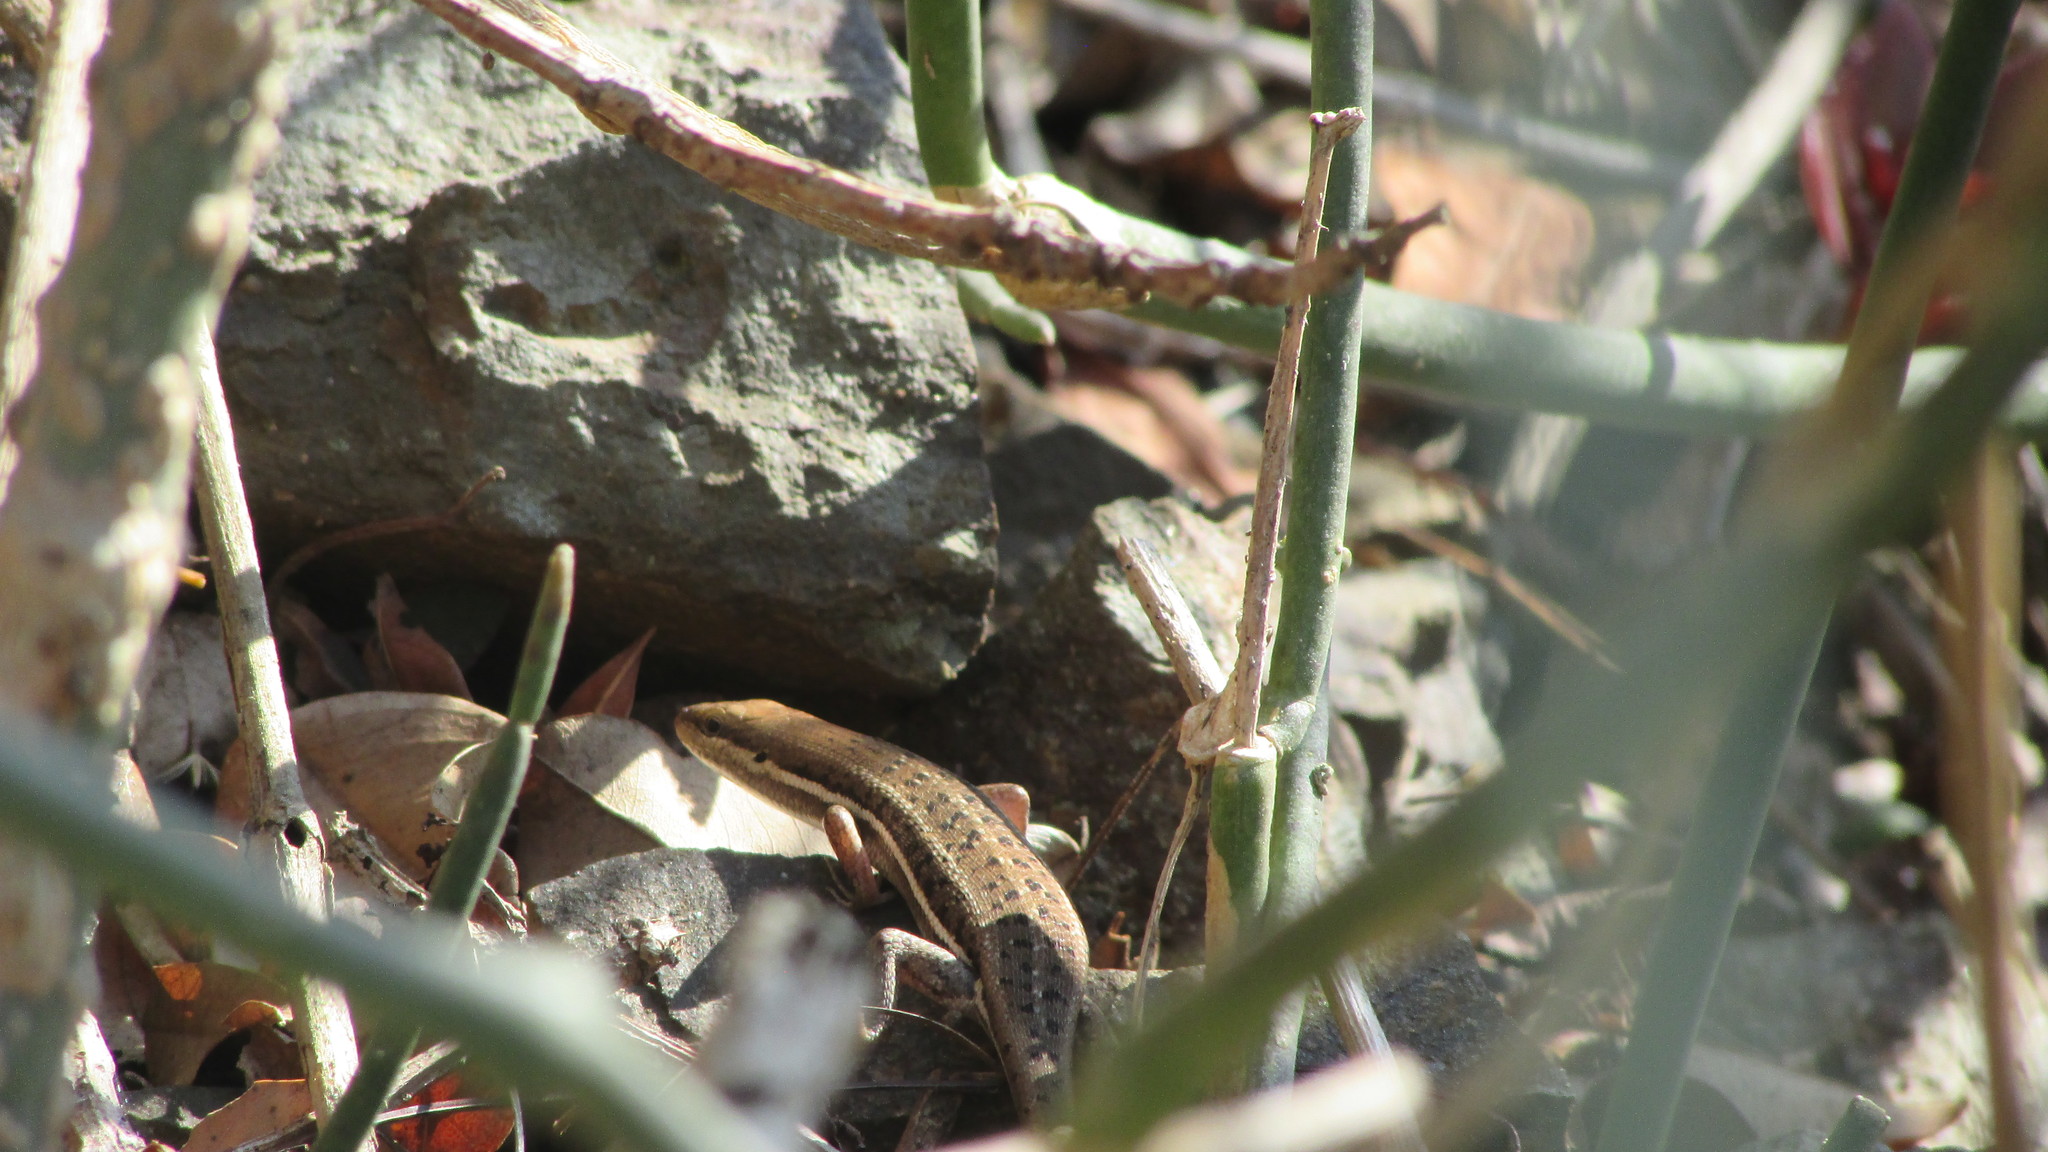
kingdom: Animalia
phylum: Chordata
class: Squamata
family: Scincidae
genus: Trachylepis
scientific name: Trachylepis varia
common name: Eastern variable skink
